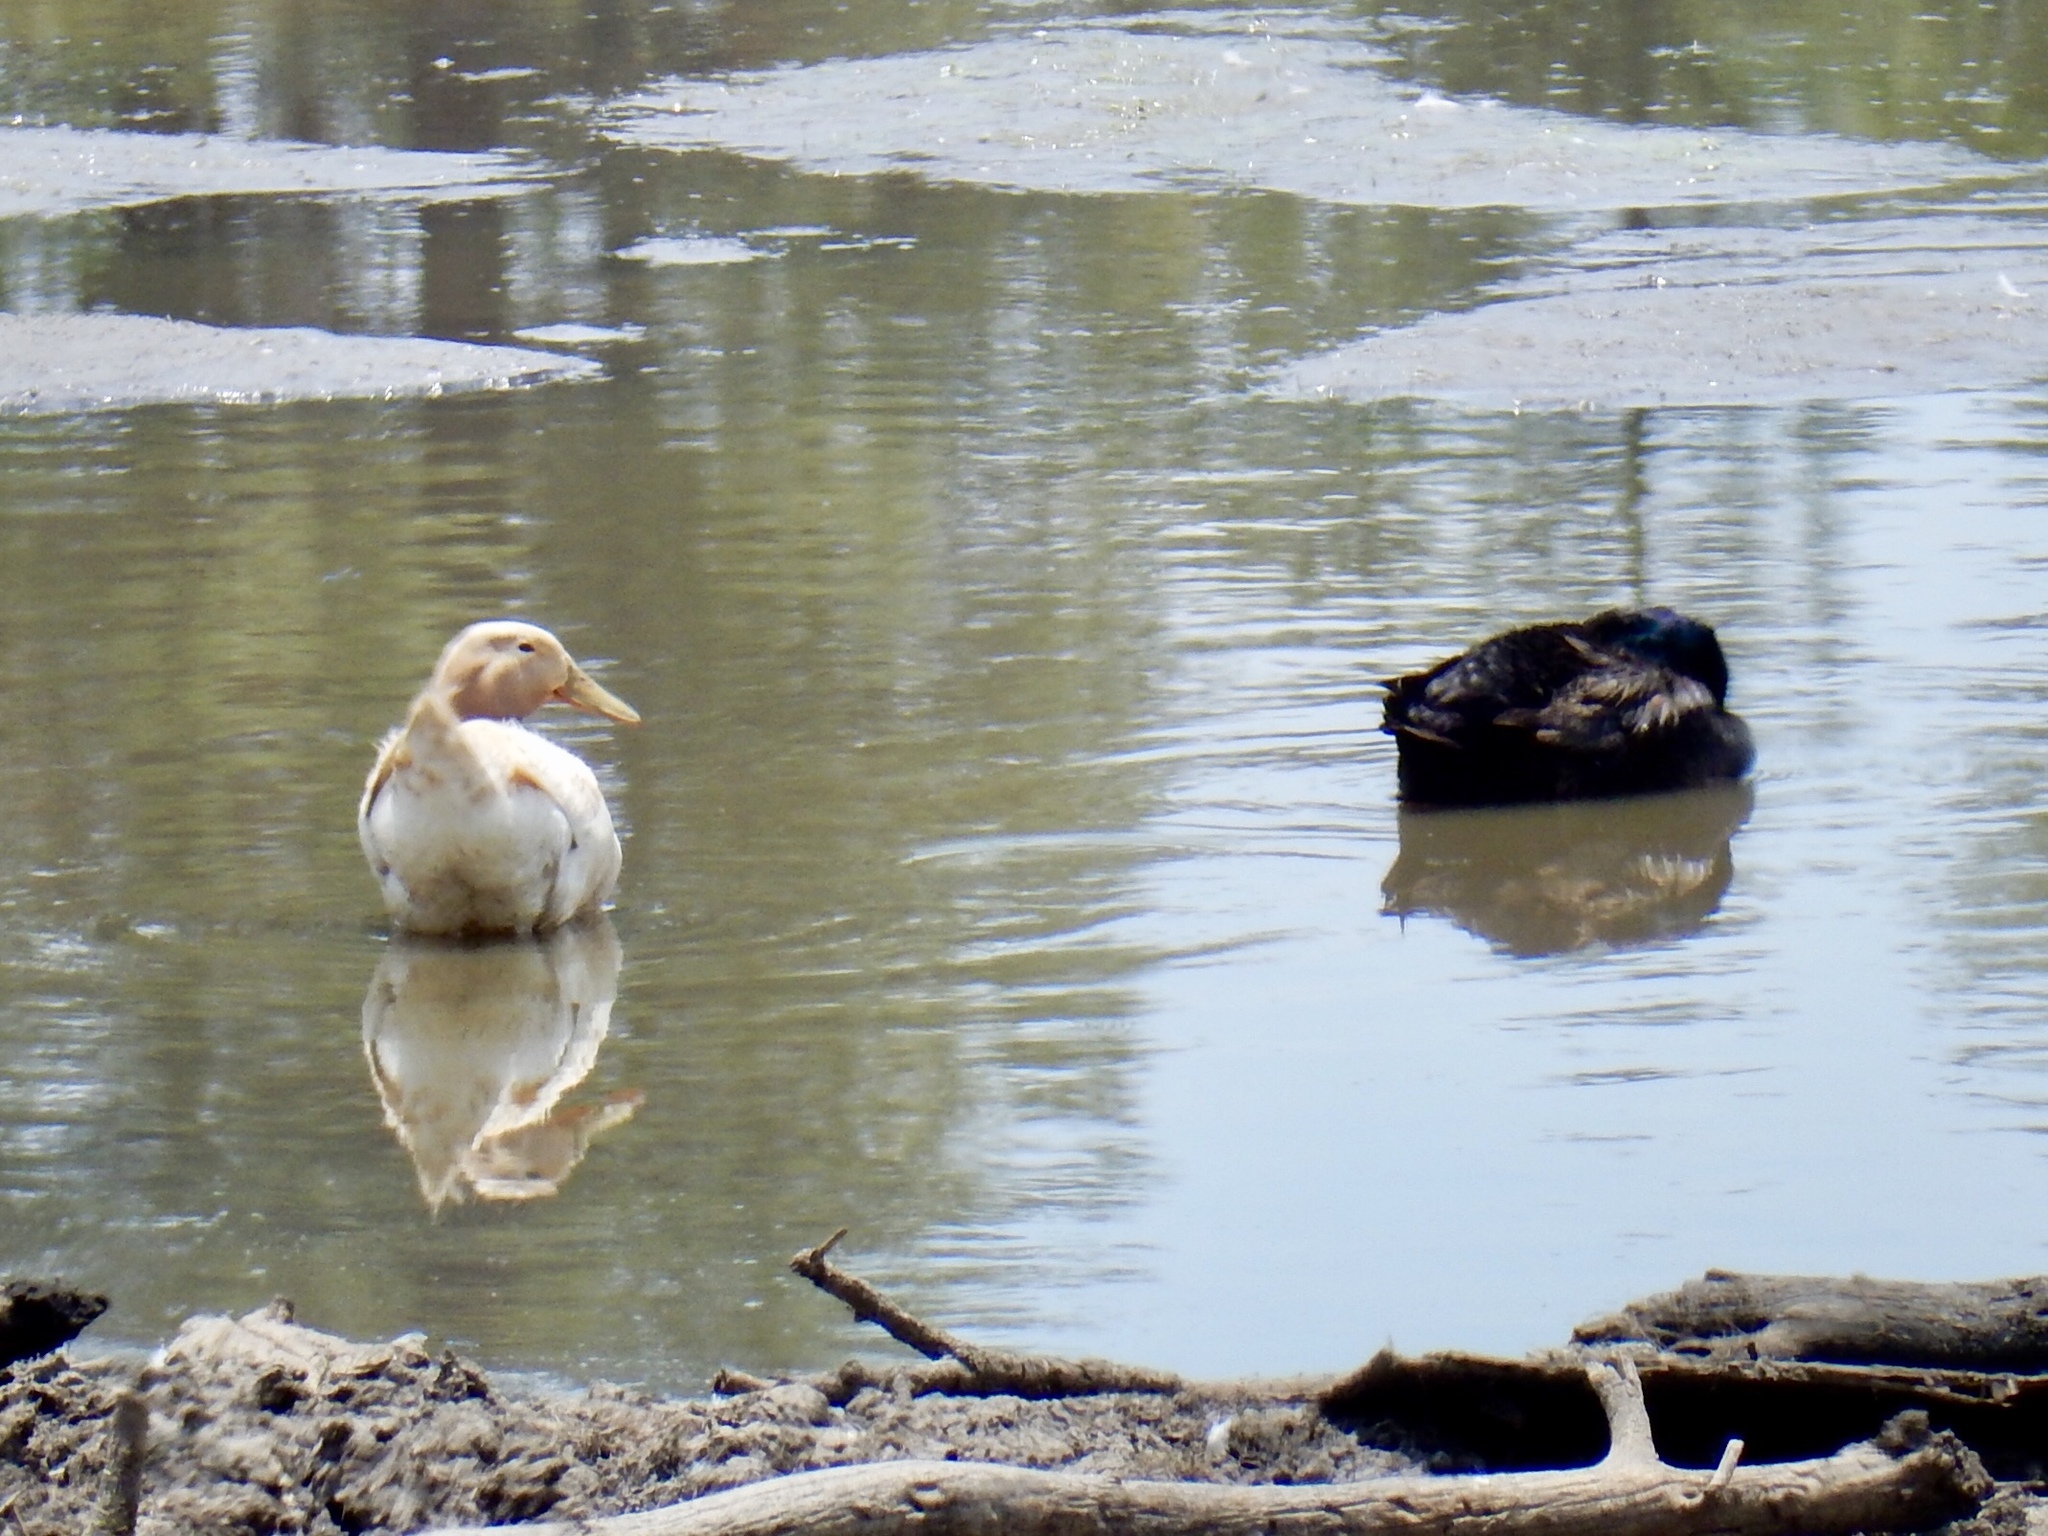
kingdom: Animalia
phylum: Chordata
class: Aves
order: Anseriformes
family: Anatidae
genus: Anas
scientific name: Anas platyrhynchos
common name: Mallard
